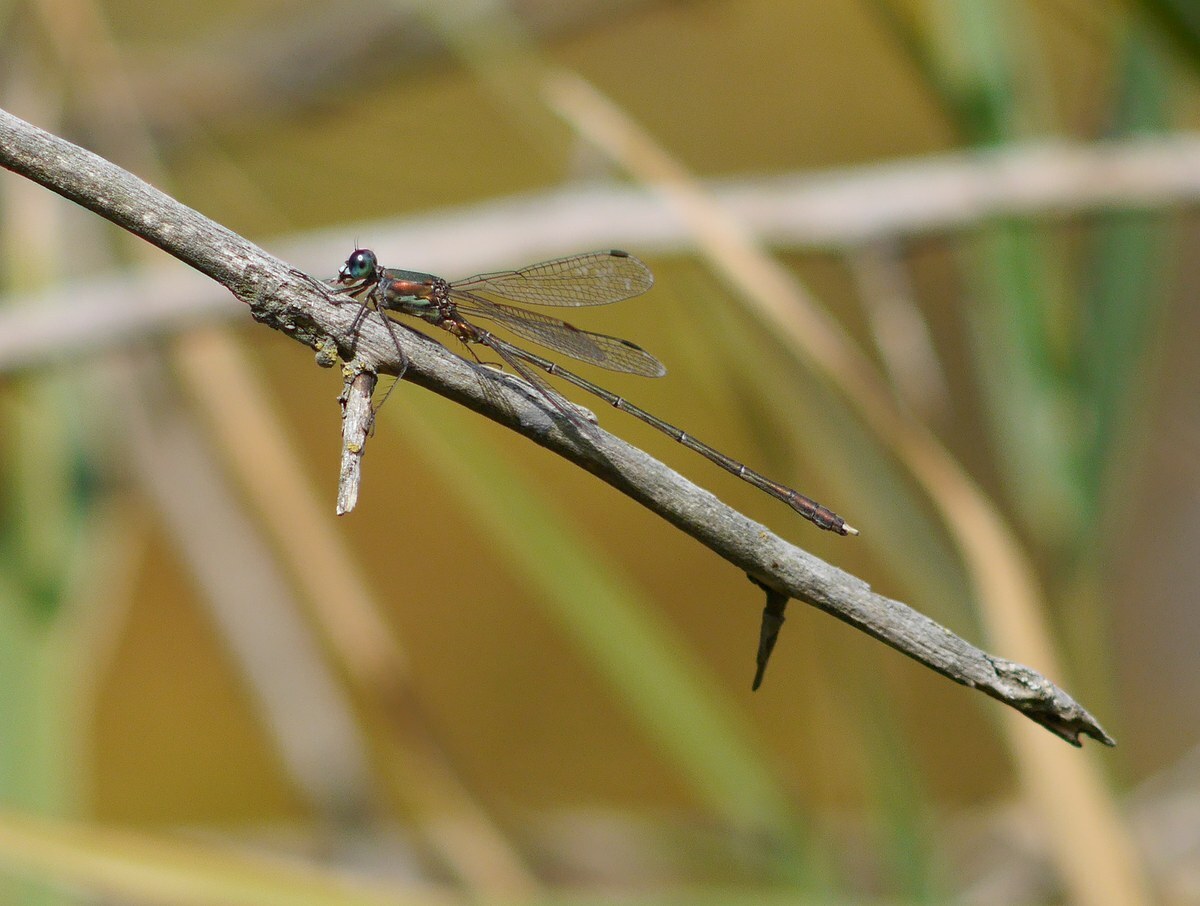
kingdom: Animalia
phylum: Arthropoda
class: Insecta
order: Odonata
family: Lestidae
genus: Chalcolestes
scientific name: Chalcolestes parvidens
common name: Eastern willow spreadwing
